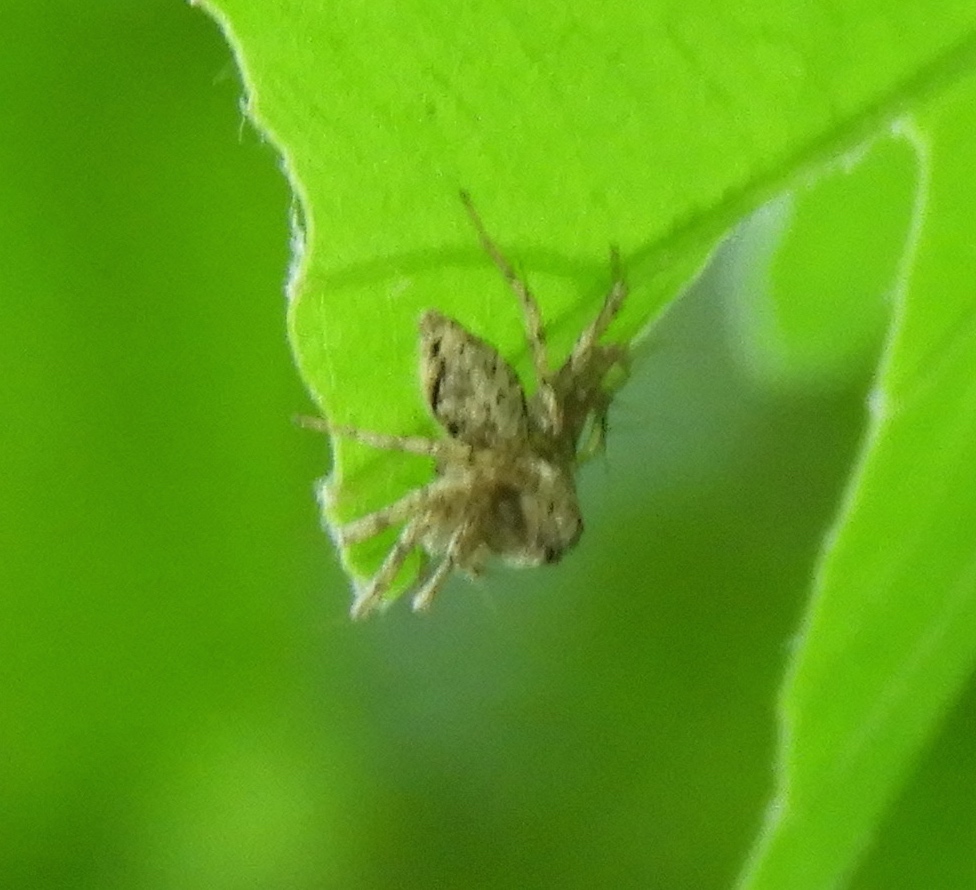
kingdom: Animalia
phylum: Arthropoda
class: Arachnida
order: Araneae
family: Oxyopidae
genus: Hamataliwa
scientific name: Hamataliwa
